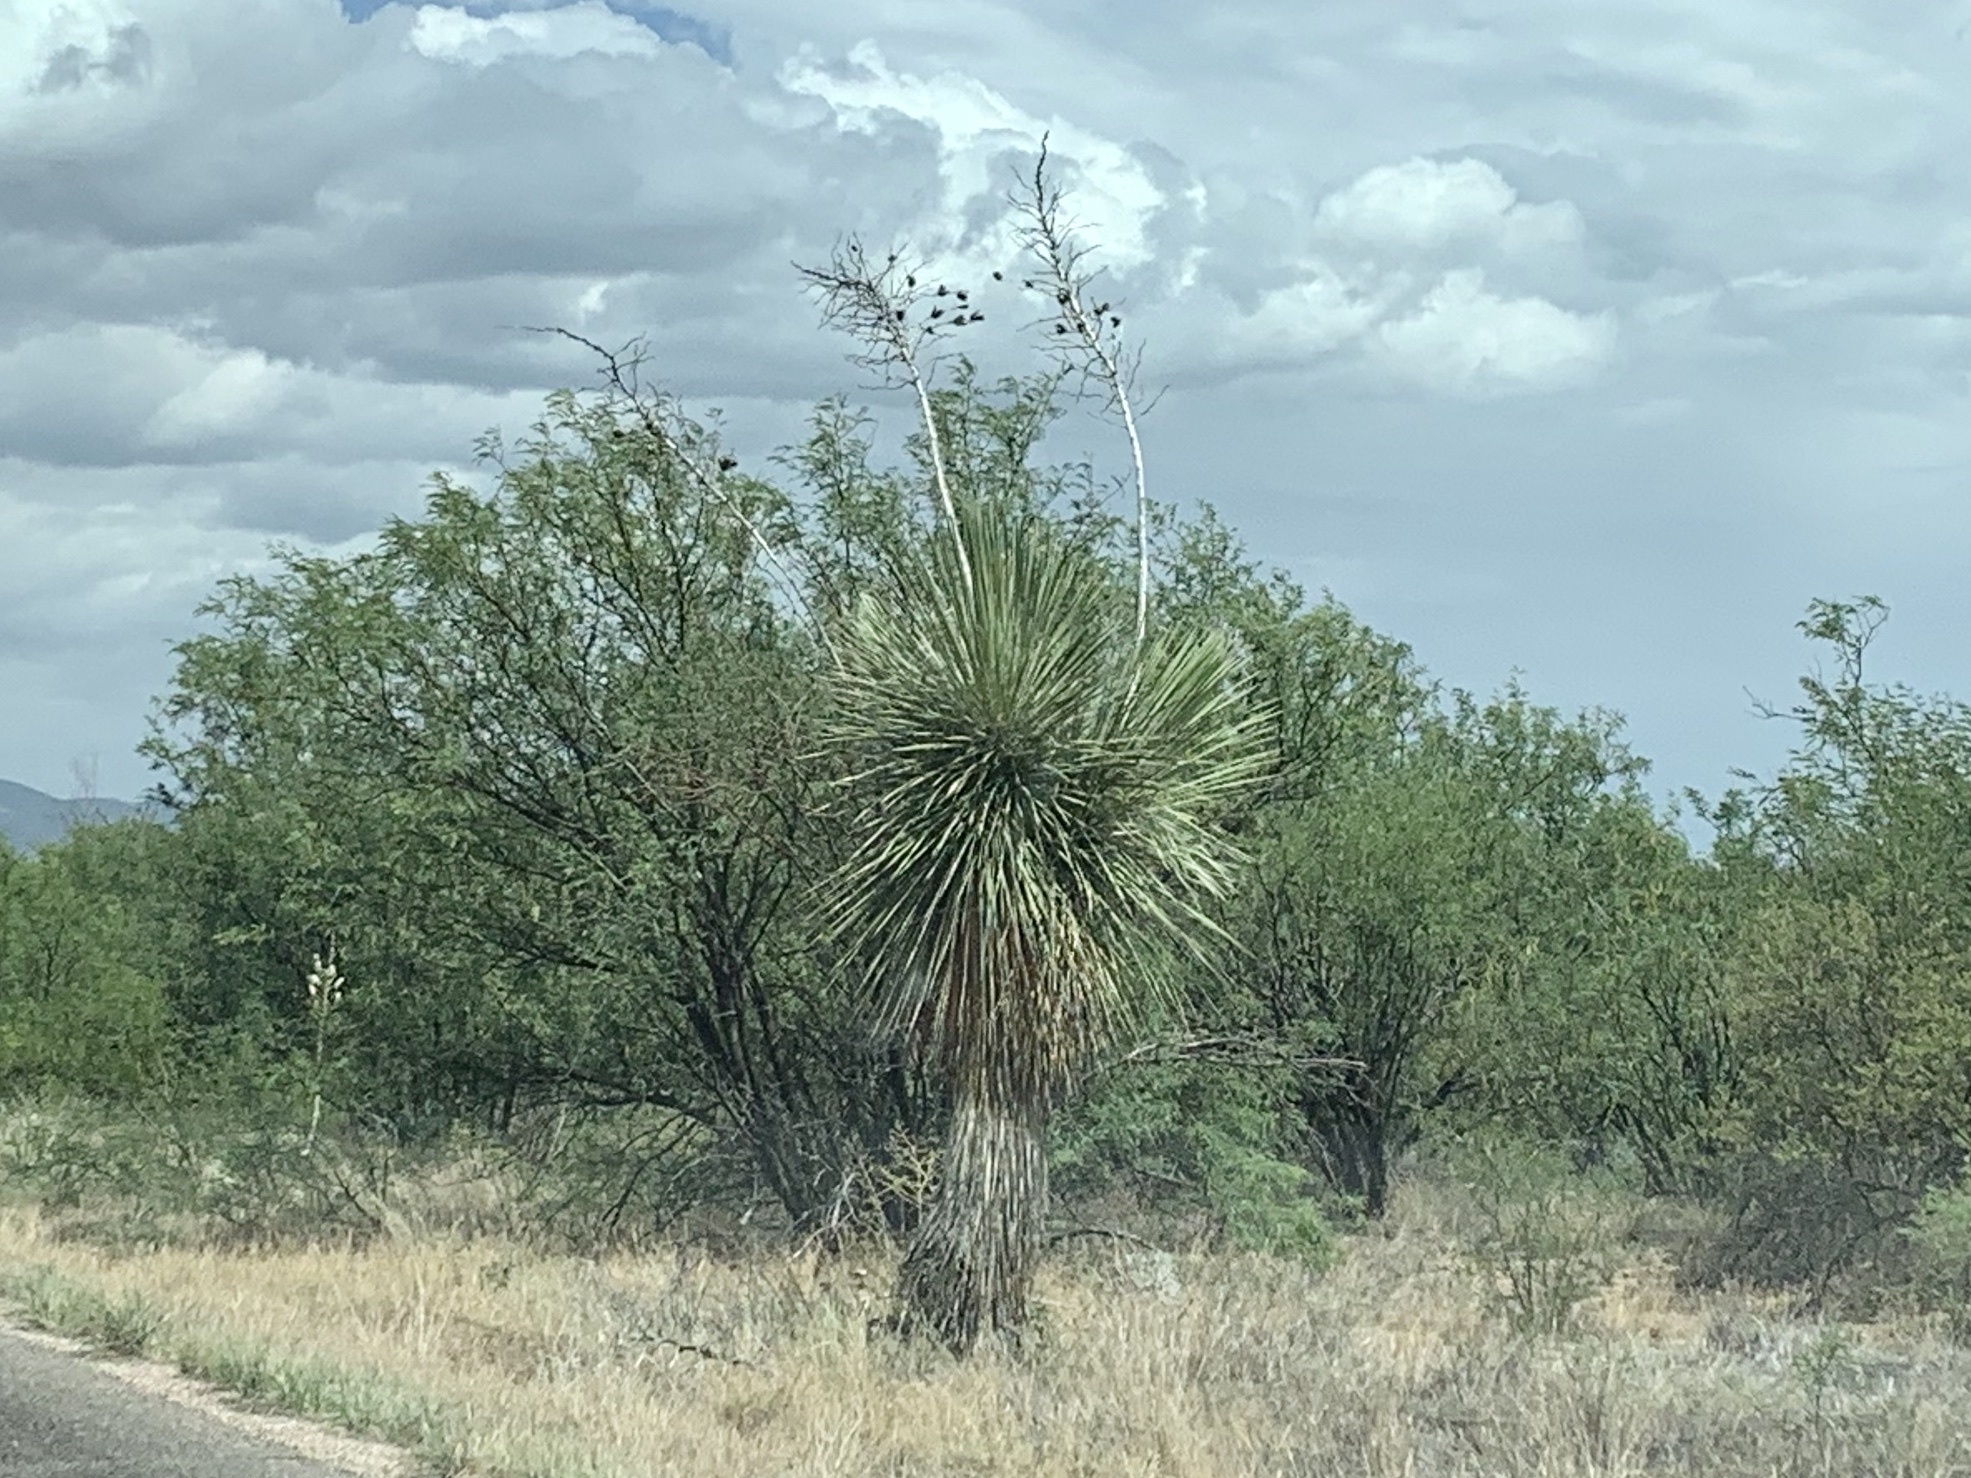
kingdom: Plantae
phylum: Tracheophyta
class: Liliopsida
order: Asparagales
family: Asparagaceae
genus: Yucca
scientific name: Yucca elata
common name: Palmella
